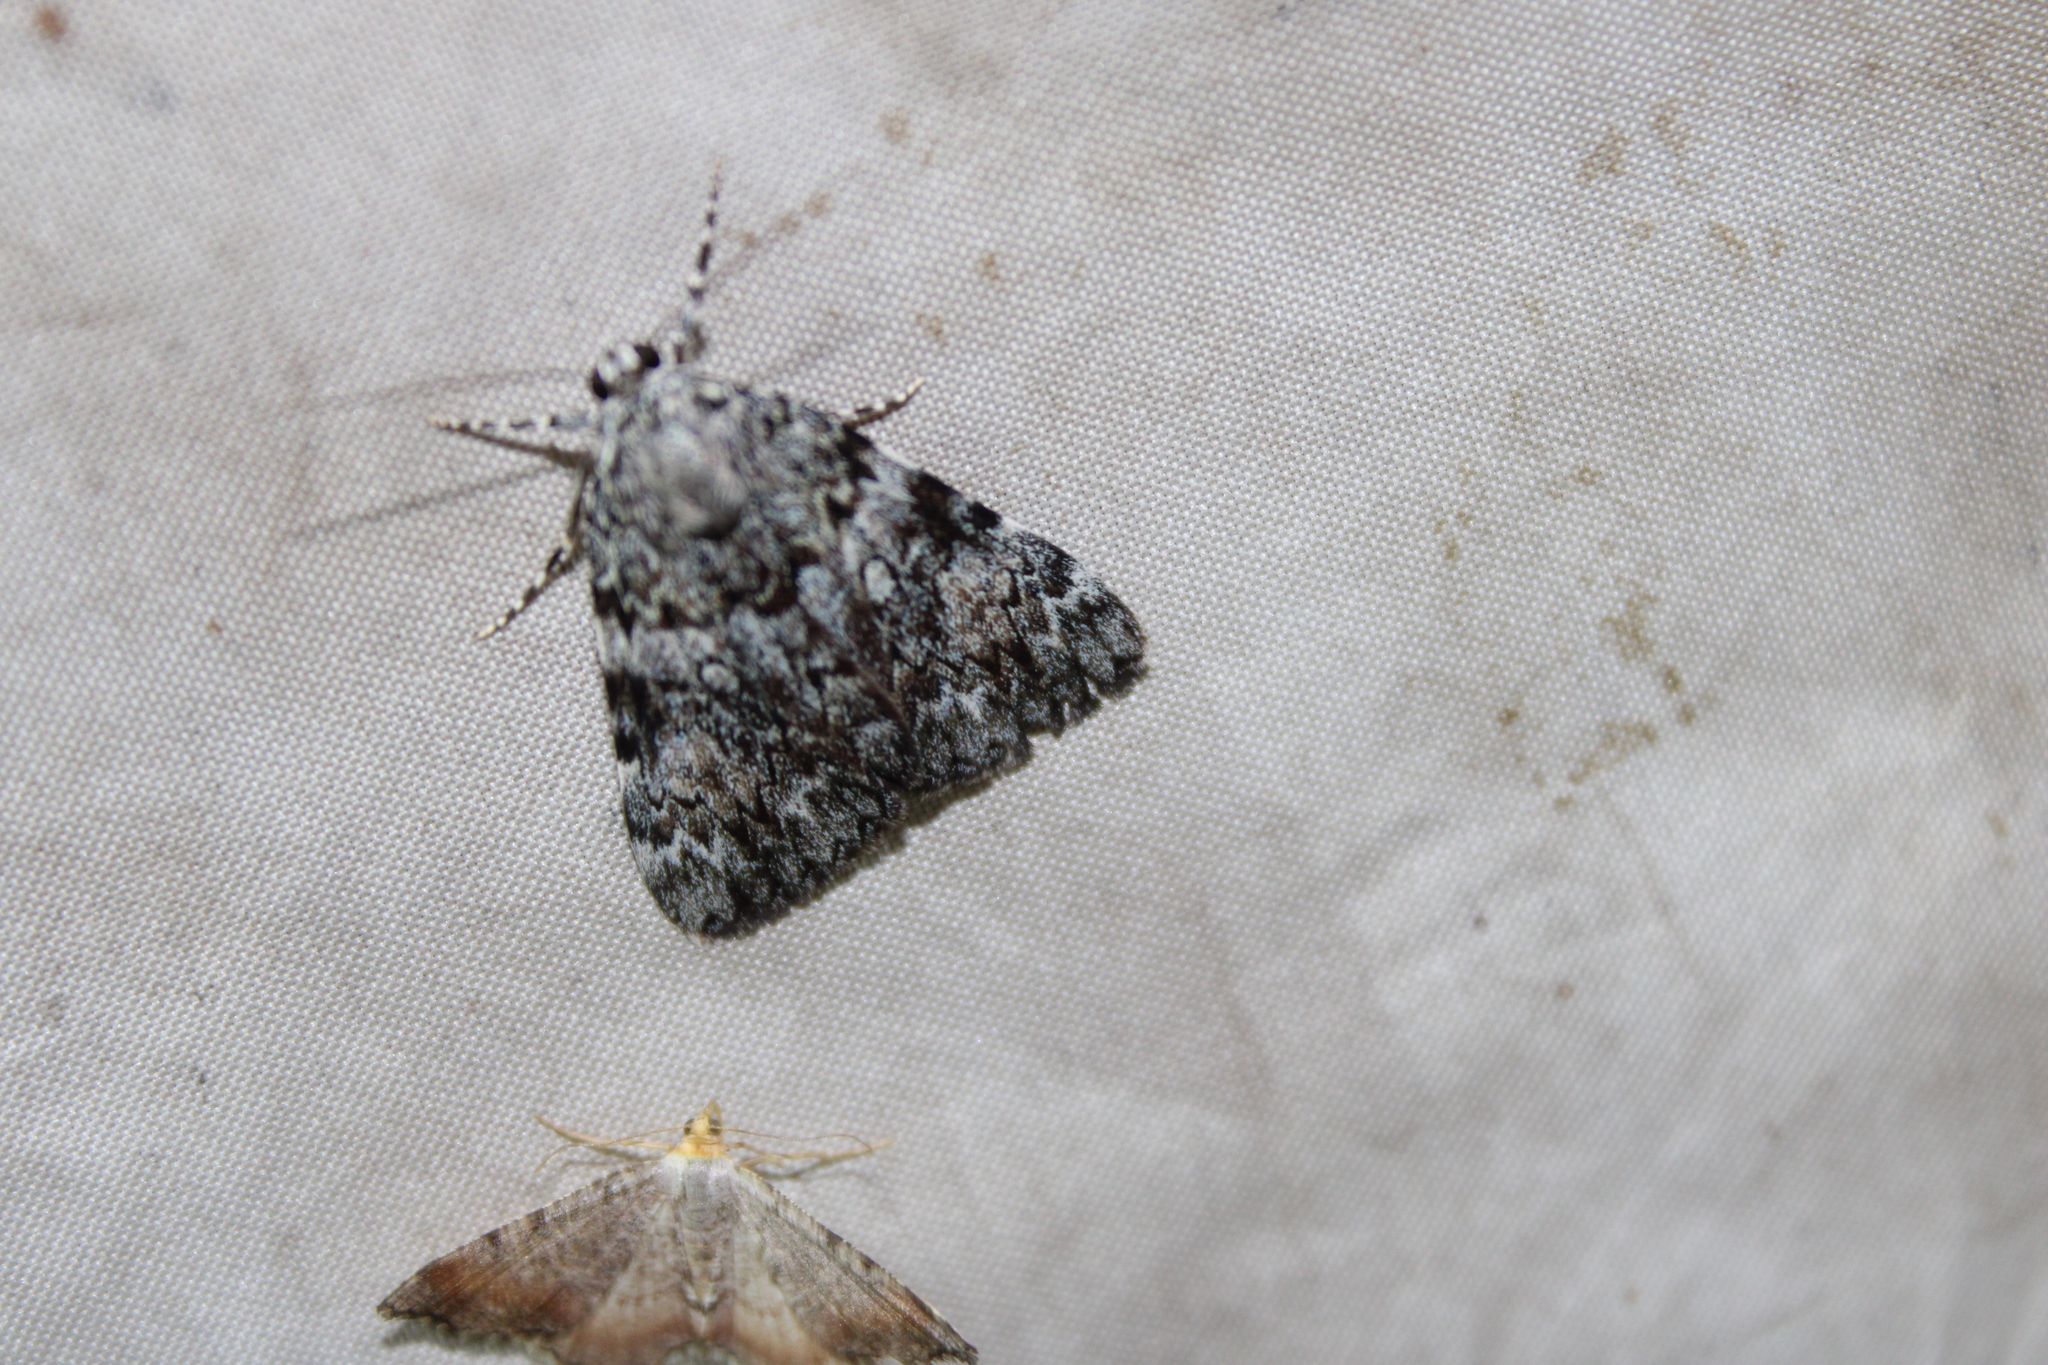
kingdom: Animalia
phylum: Arthropoda
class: Insecta
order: Lepidoptera
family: Erebidae
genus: Catocala
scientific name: Catocala lineella
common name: Little lined underwing
